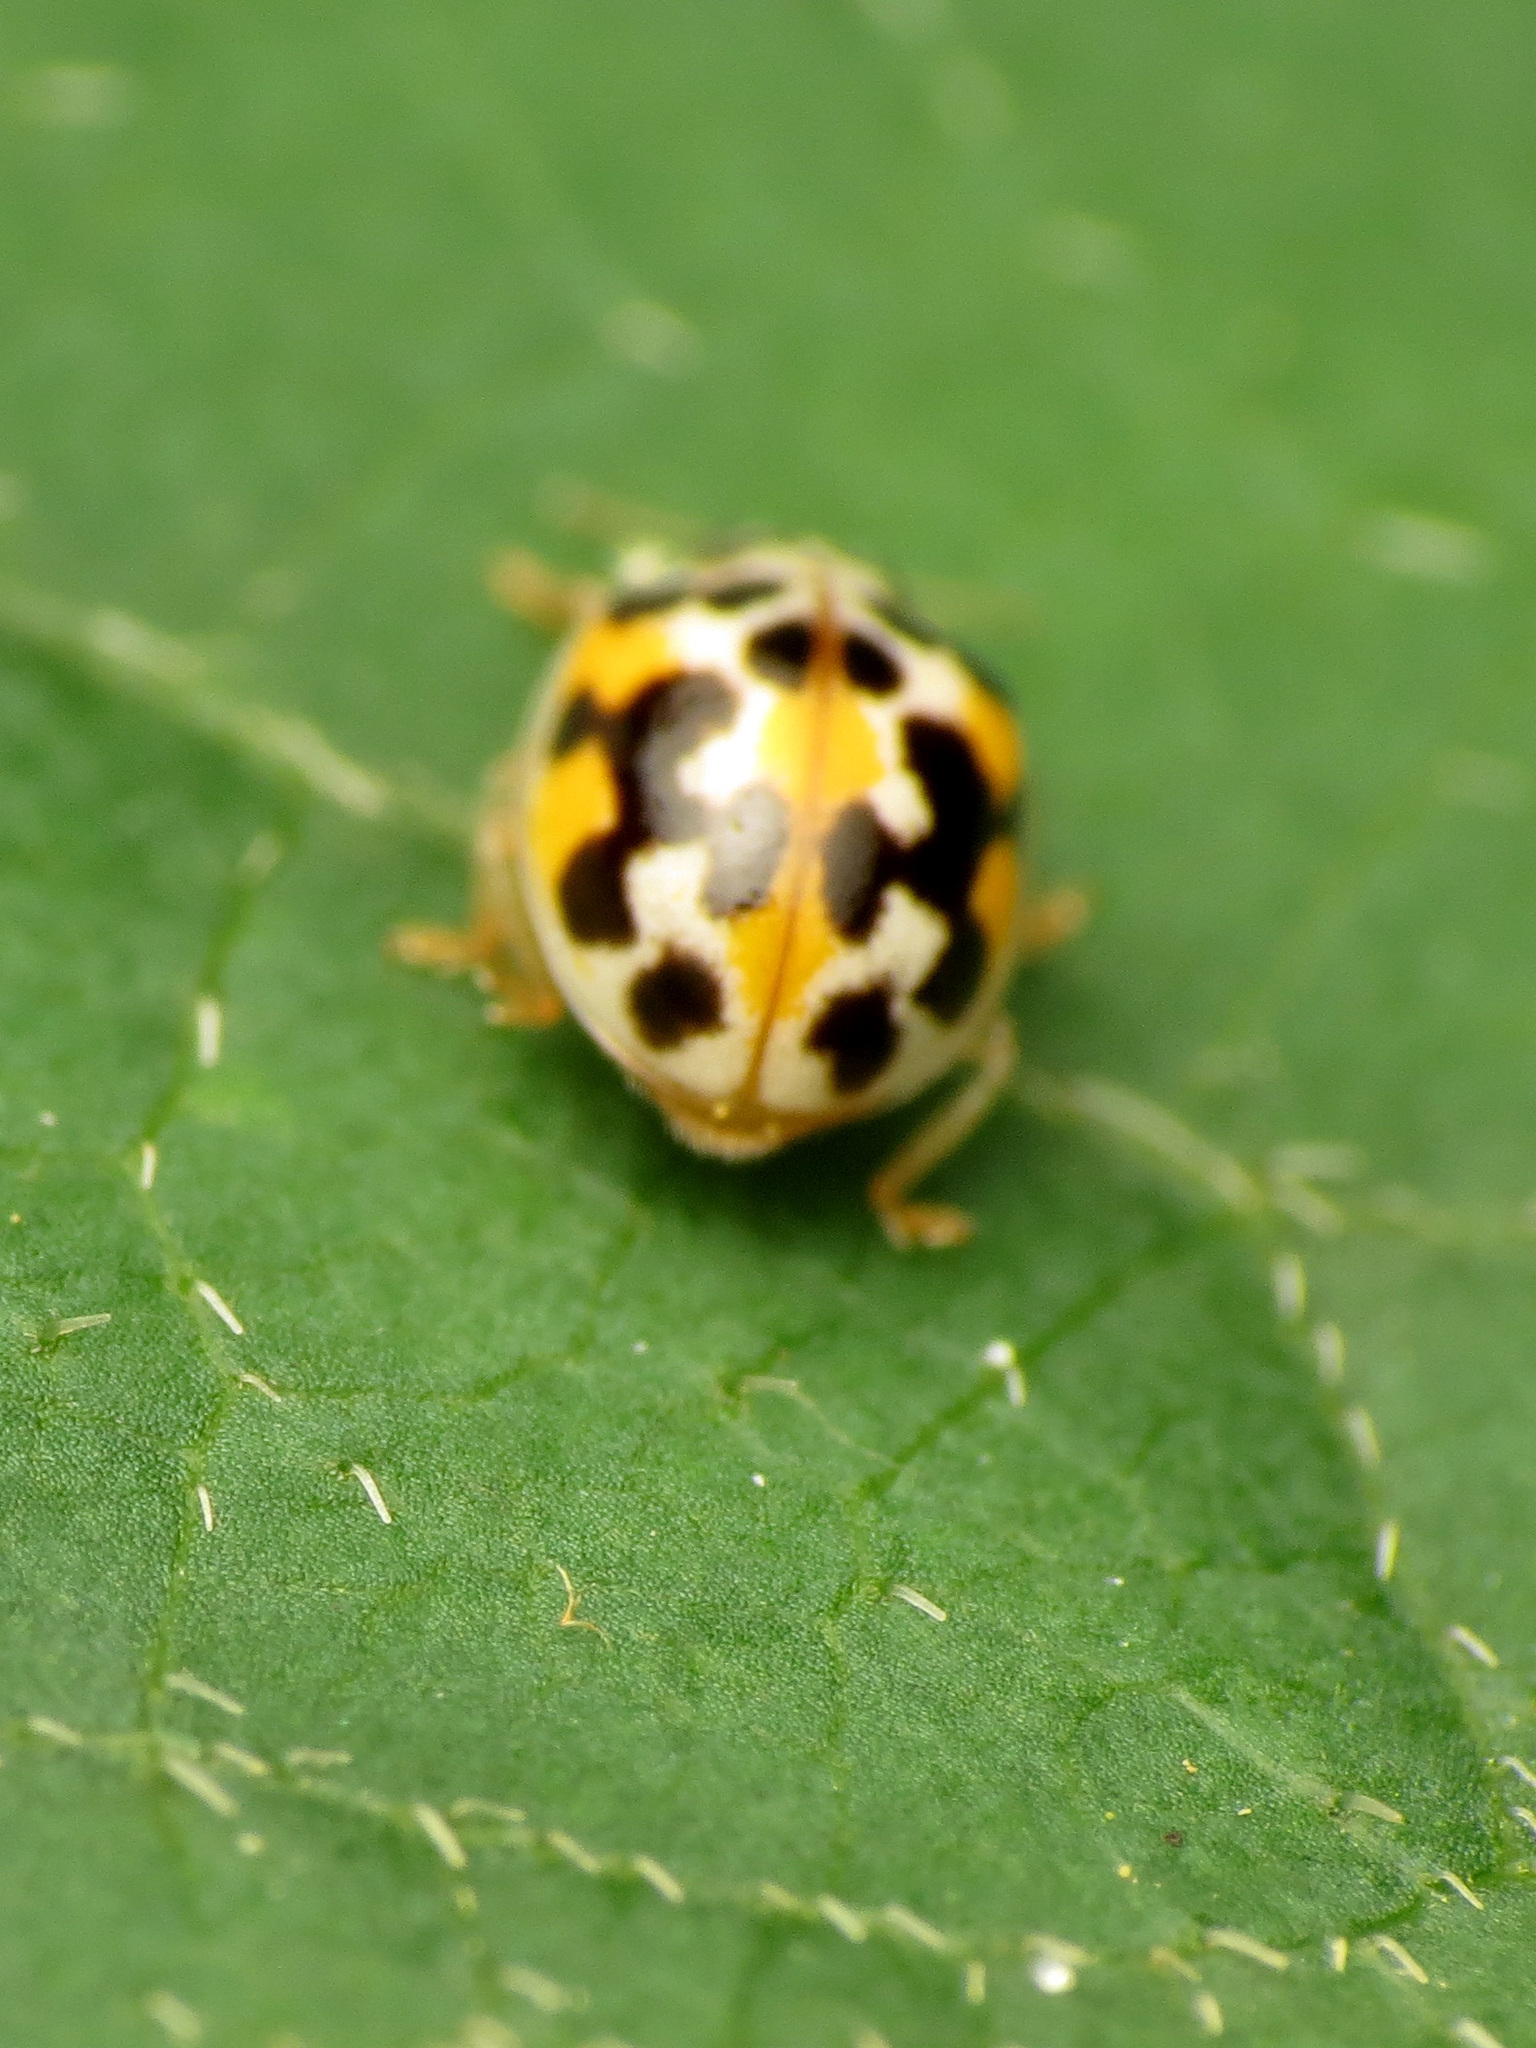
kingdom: Animalia
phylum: Arthropoda
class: Insecta
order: Coleoptera
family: Coccinellidae
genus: Psyllobora
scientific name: Psyllobora vigintimaculata
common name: Ladybird beetle
